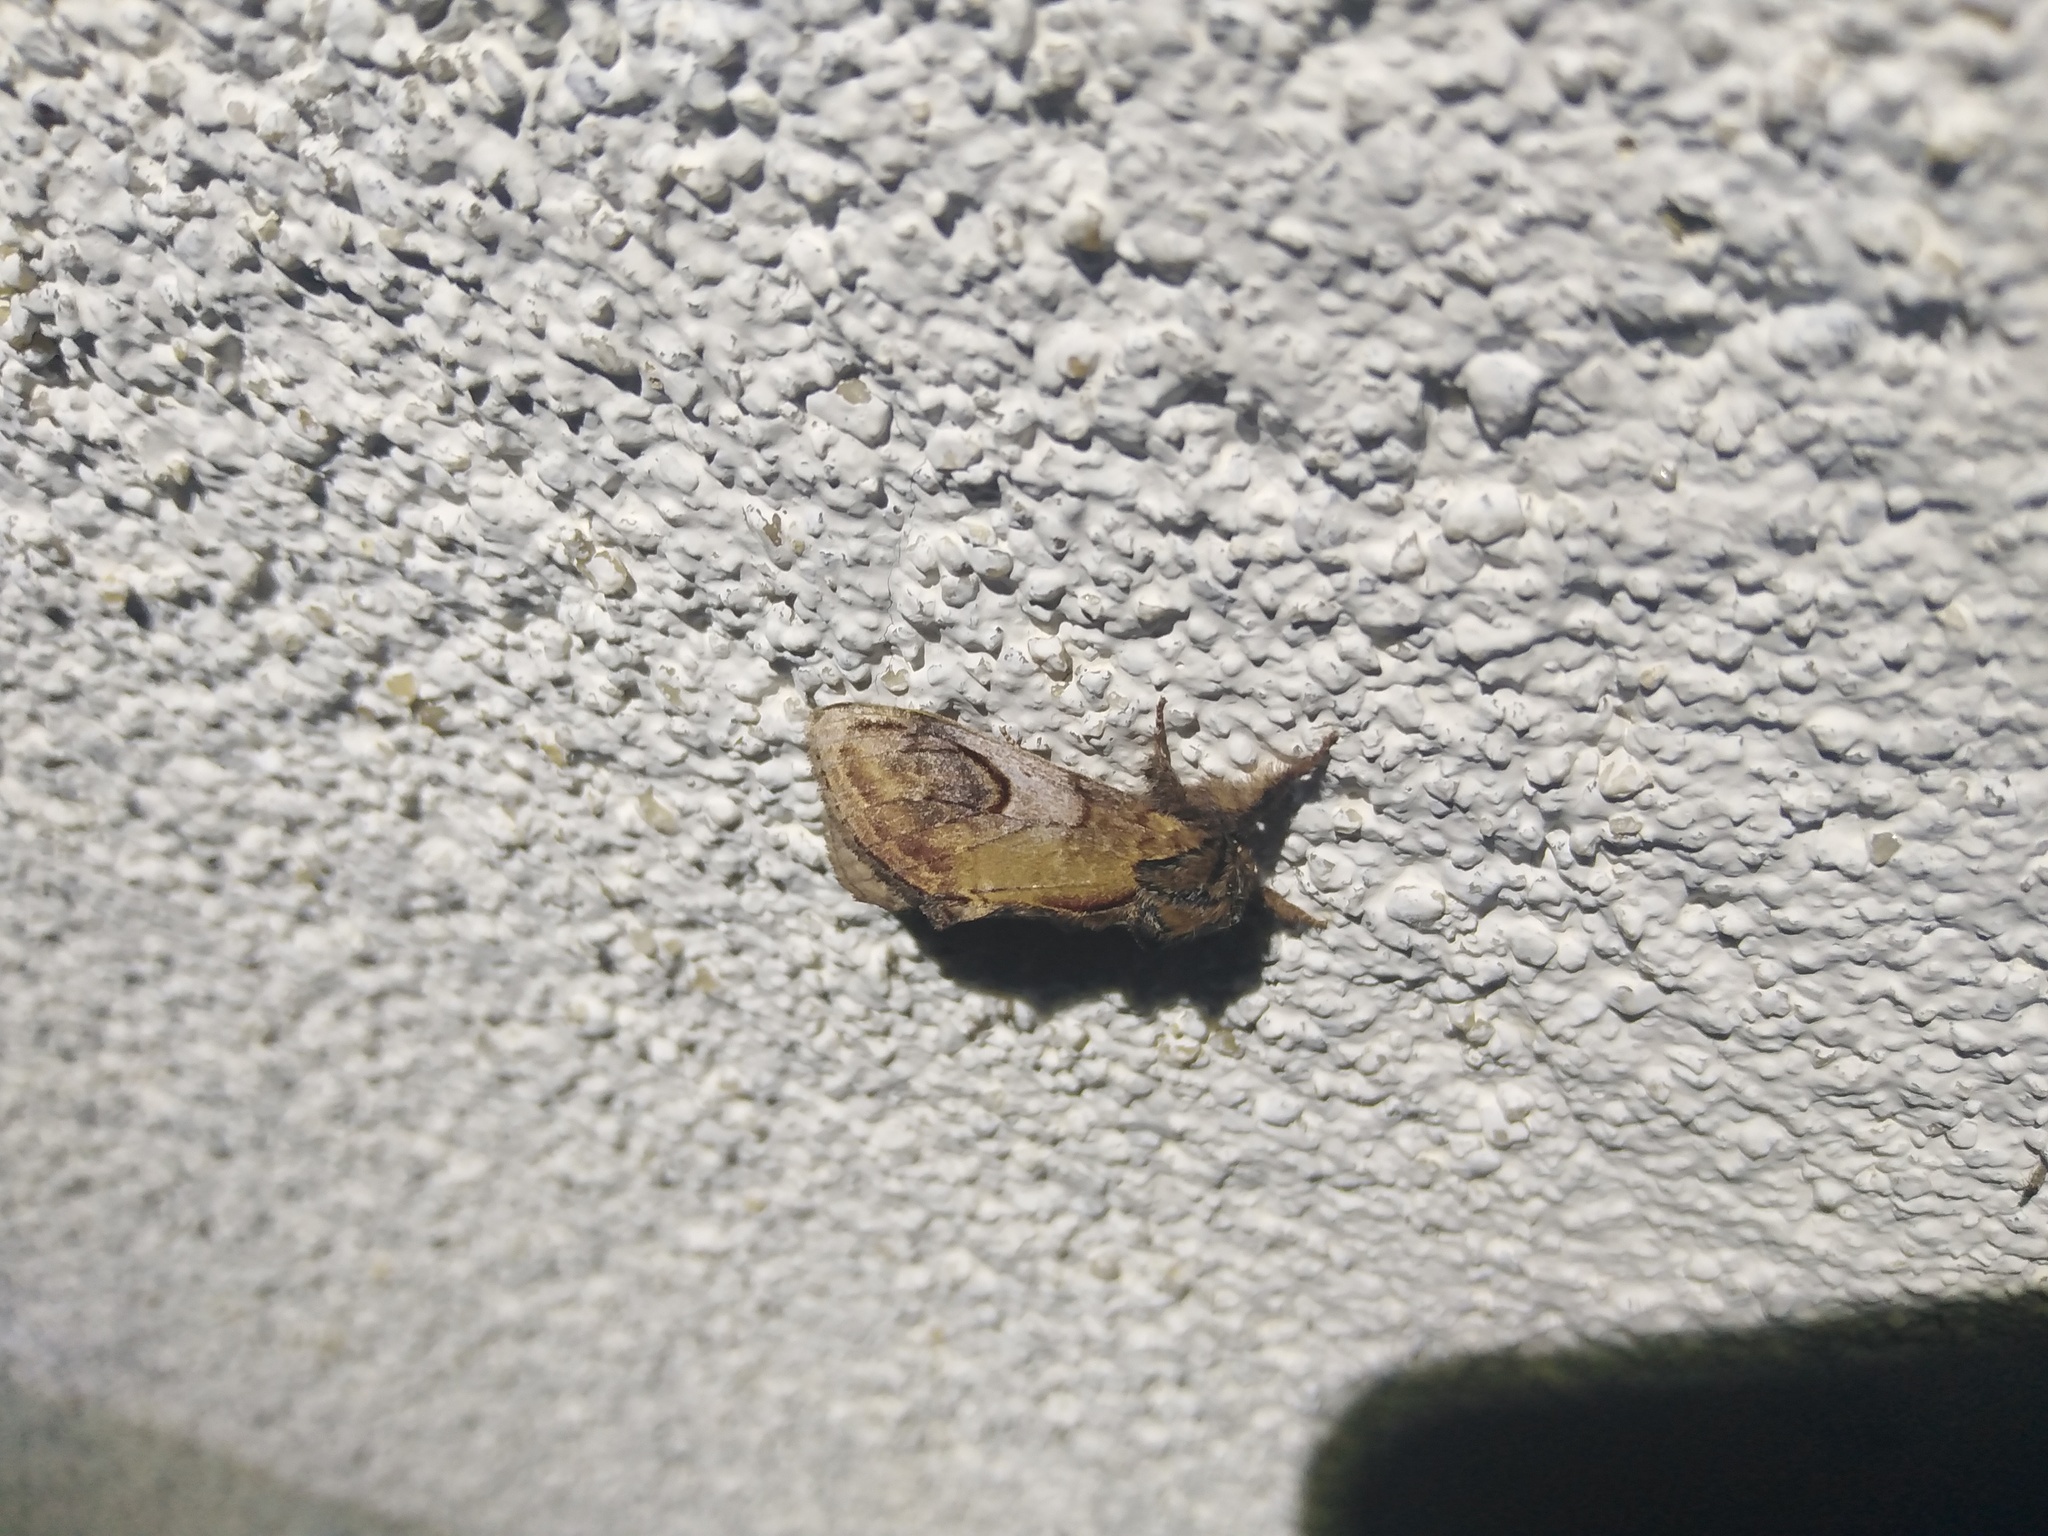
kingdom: Animalia
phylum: Arthropoda
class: Insecta
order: Lepidoptera
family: Notodontidae
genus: Notodonta
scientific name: Notodonta ziczac
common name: Pebble prominent
